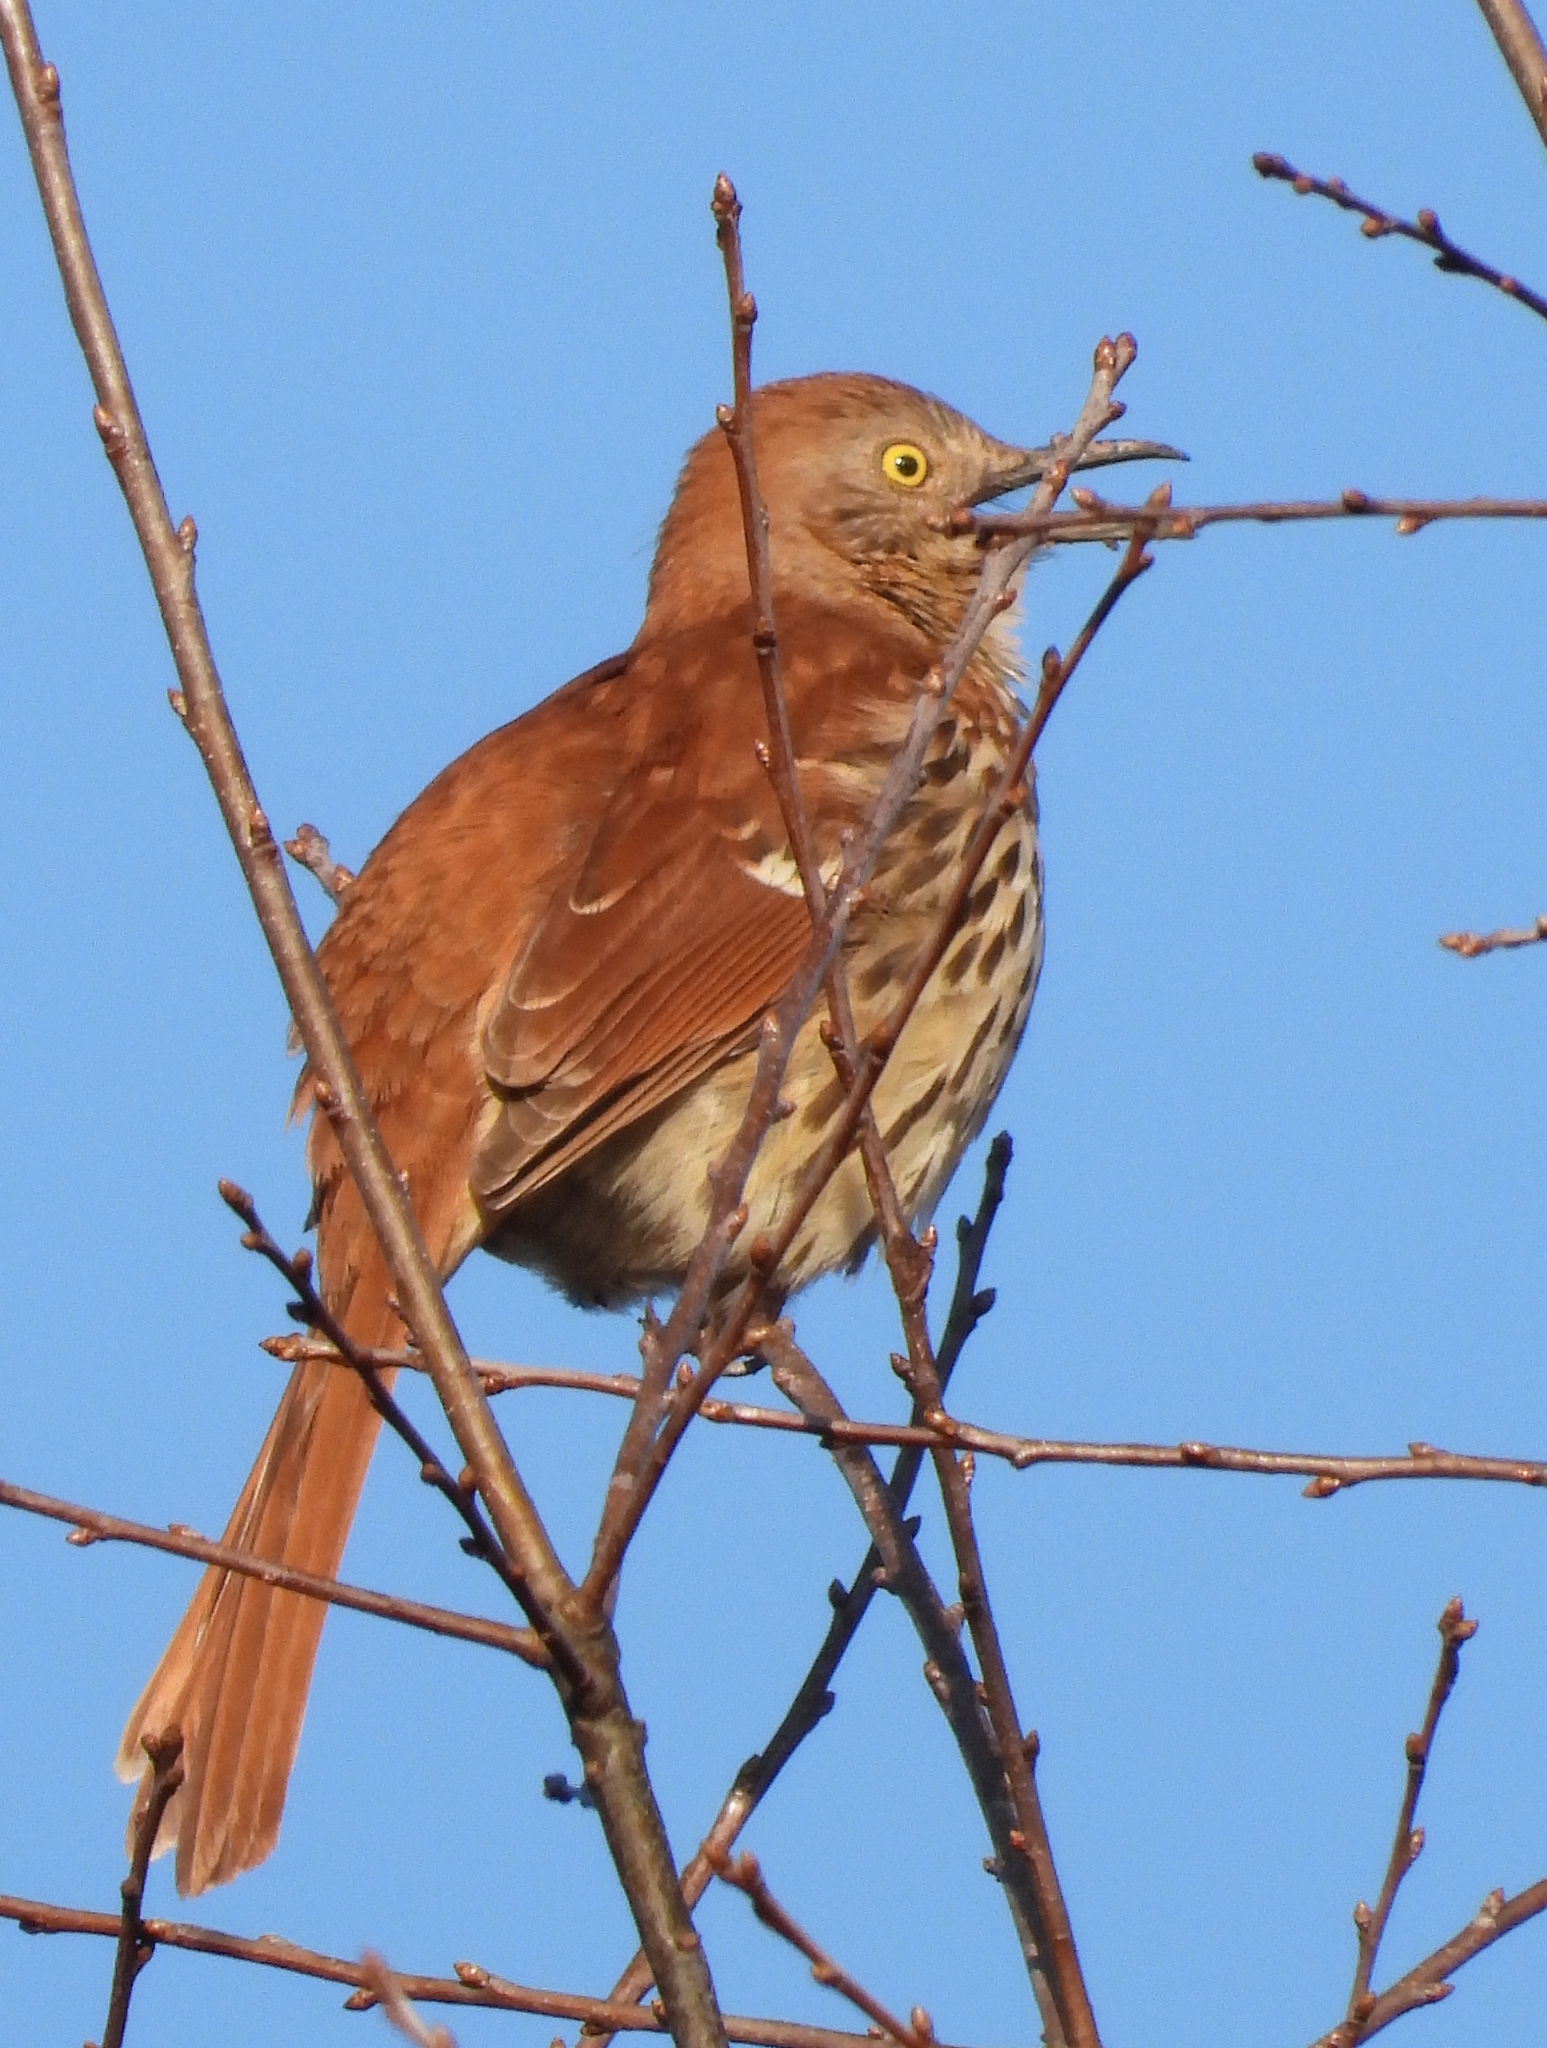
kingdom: Animalia
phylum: Chordata
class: Aves
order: Passeriformes
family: Mimidae
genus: Toxostoma
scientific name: Toxostoma rufum
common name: Brown thrasher
